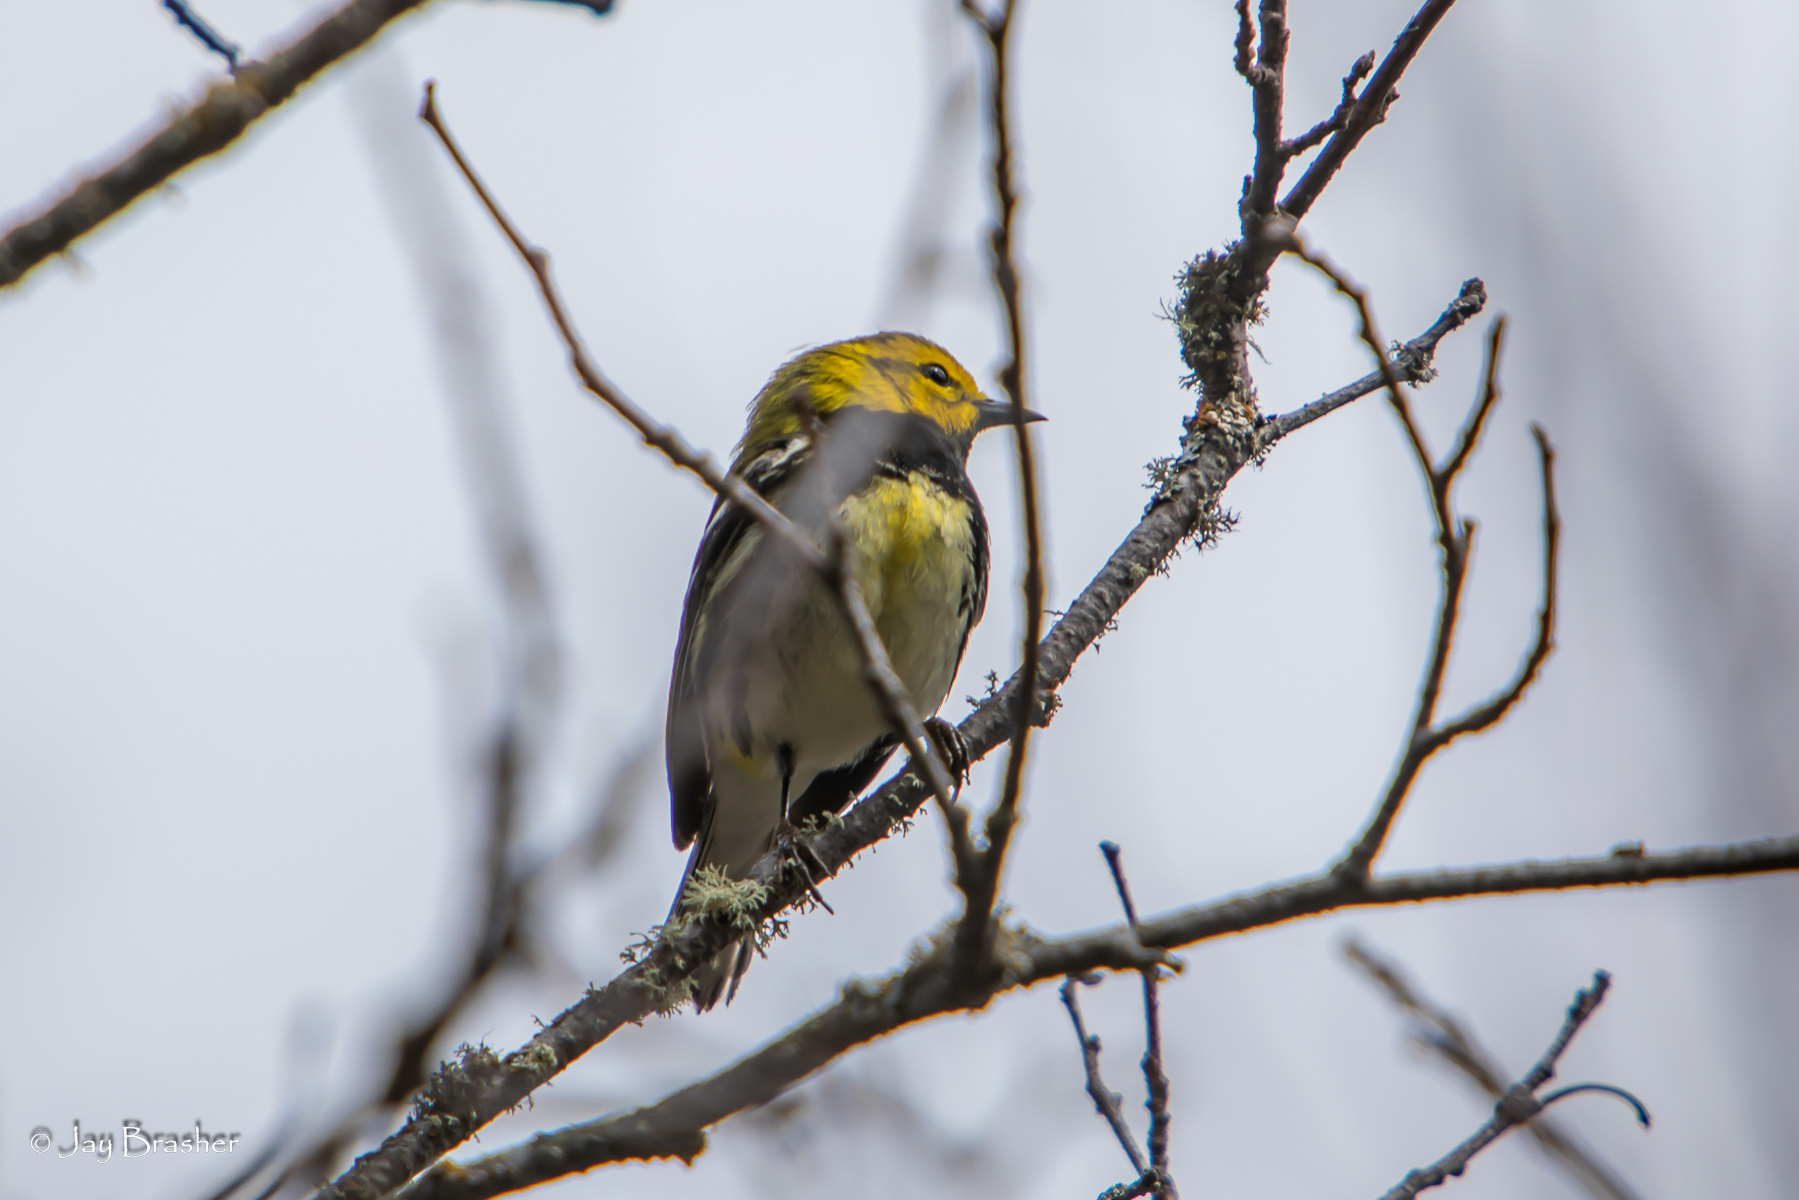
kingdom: Animalia
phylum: Chordata
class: Aves
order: Passeriformes
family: Parulidae
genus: Setophaga
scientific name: Setophaga virens
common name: Black-throated green warbler
